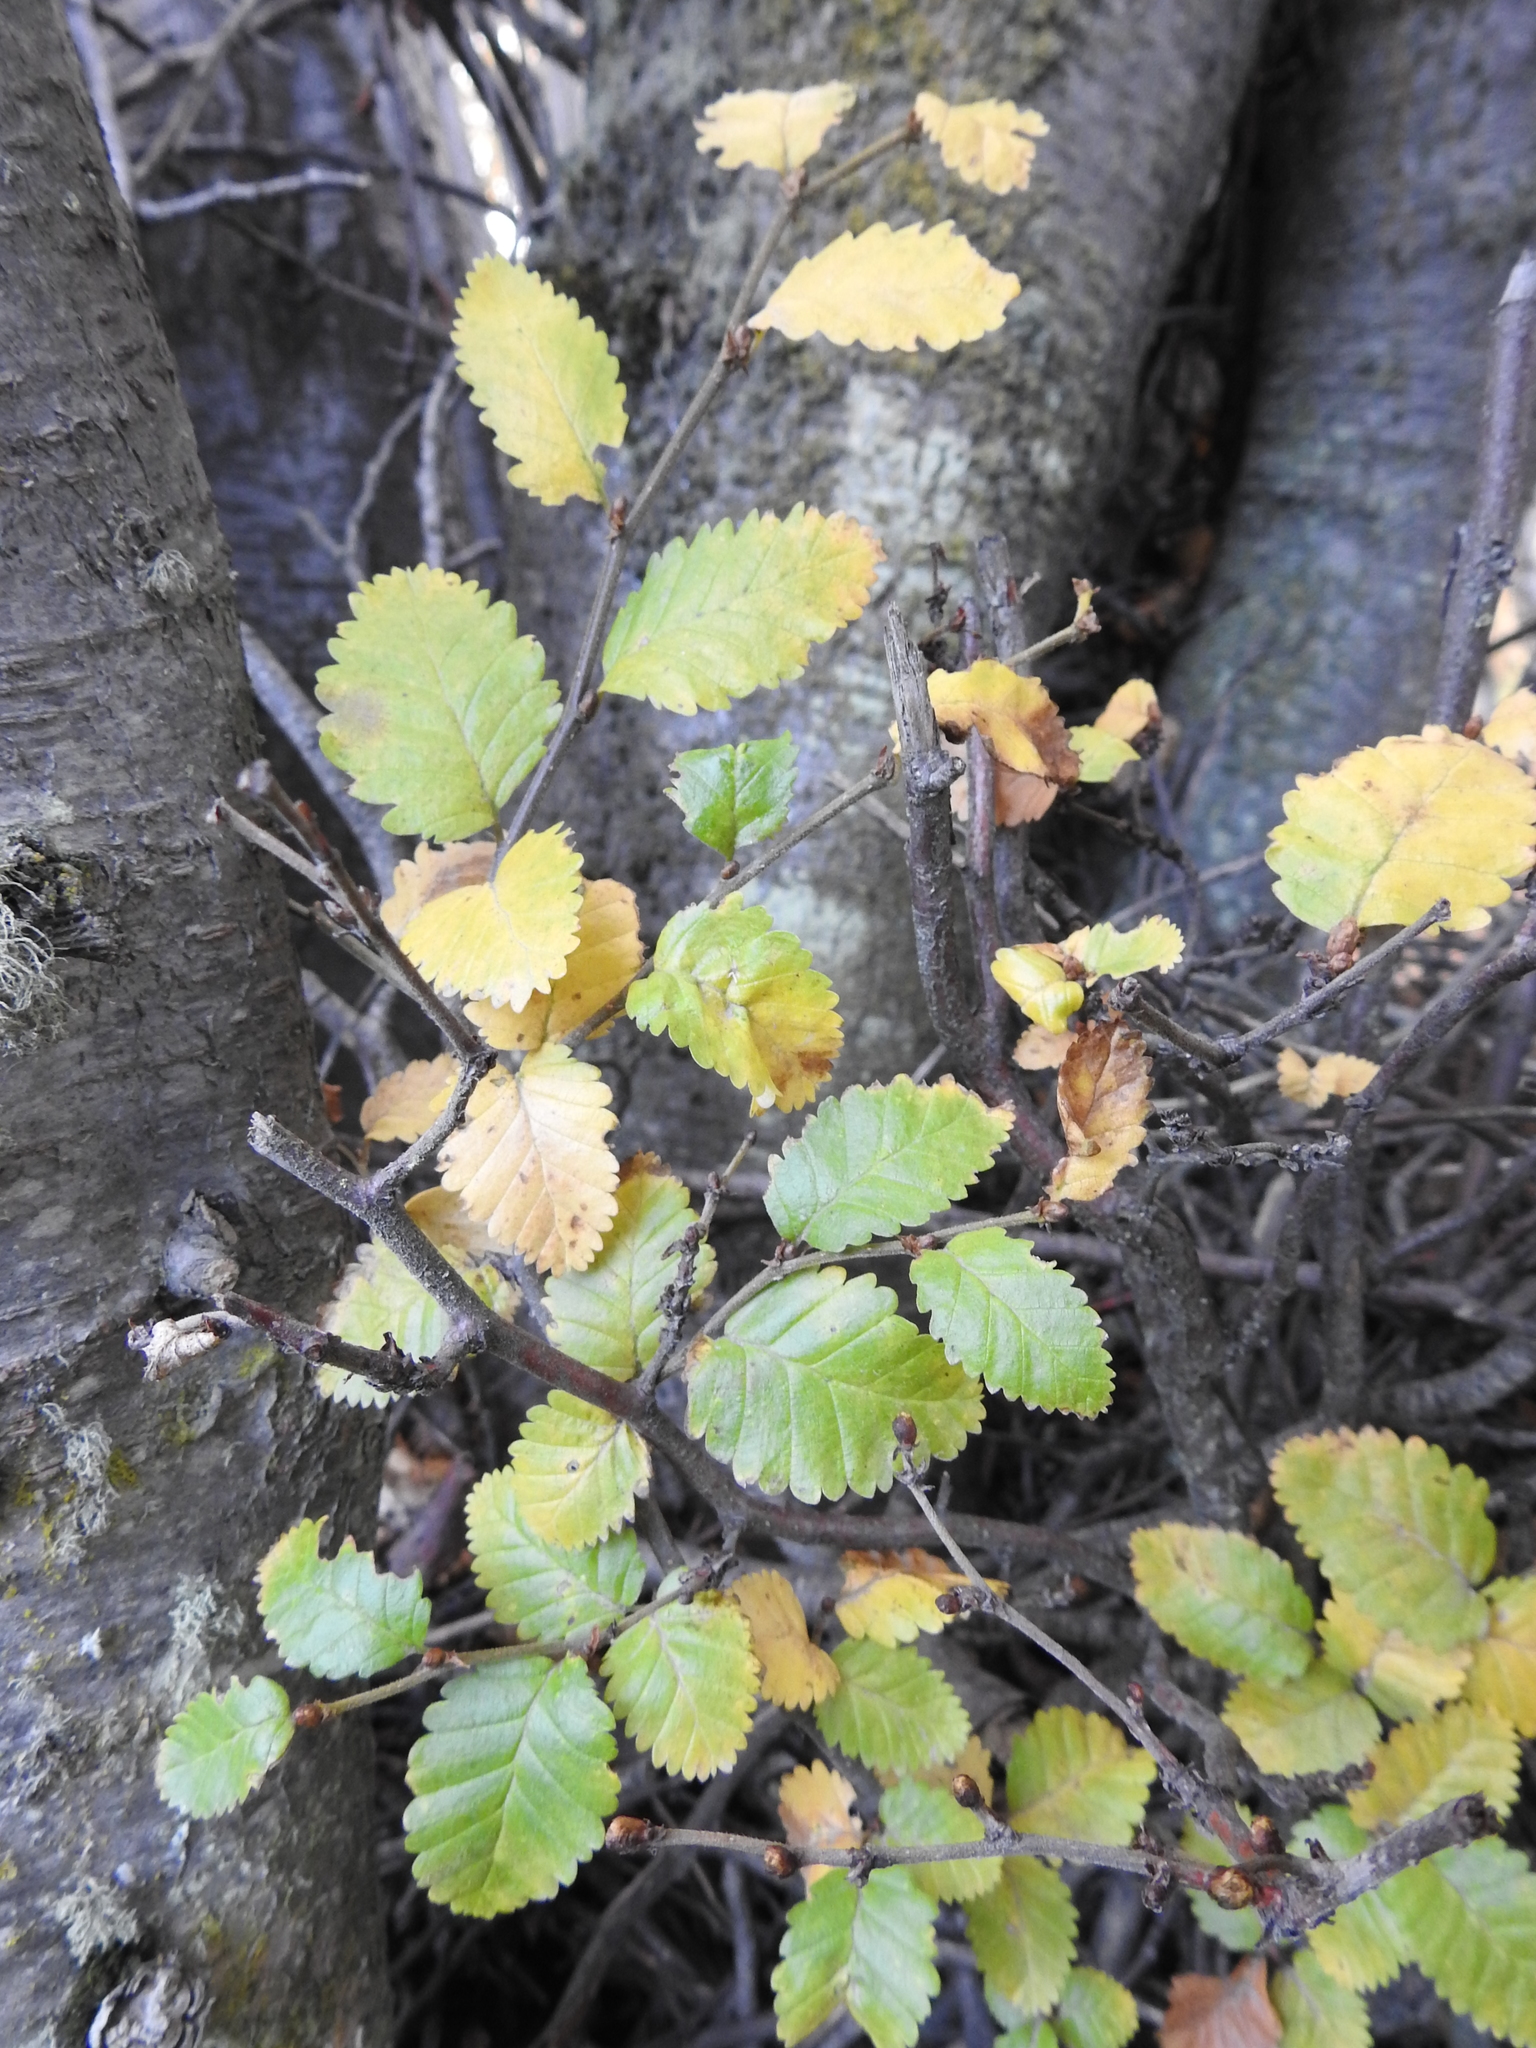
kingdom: Plantae
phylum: Tracheophyta
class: Magnoliopsida
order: Fagales
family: Nothofagaceae
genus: Nothofagus
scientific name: Nothofagus pumilio
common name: Lenga beech
